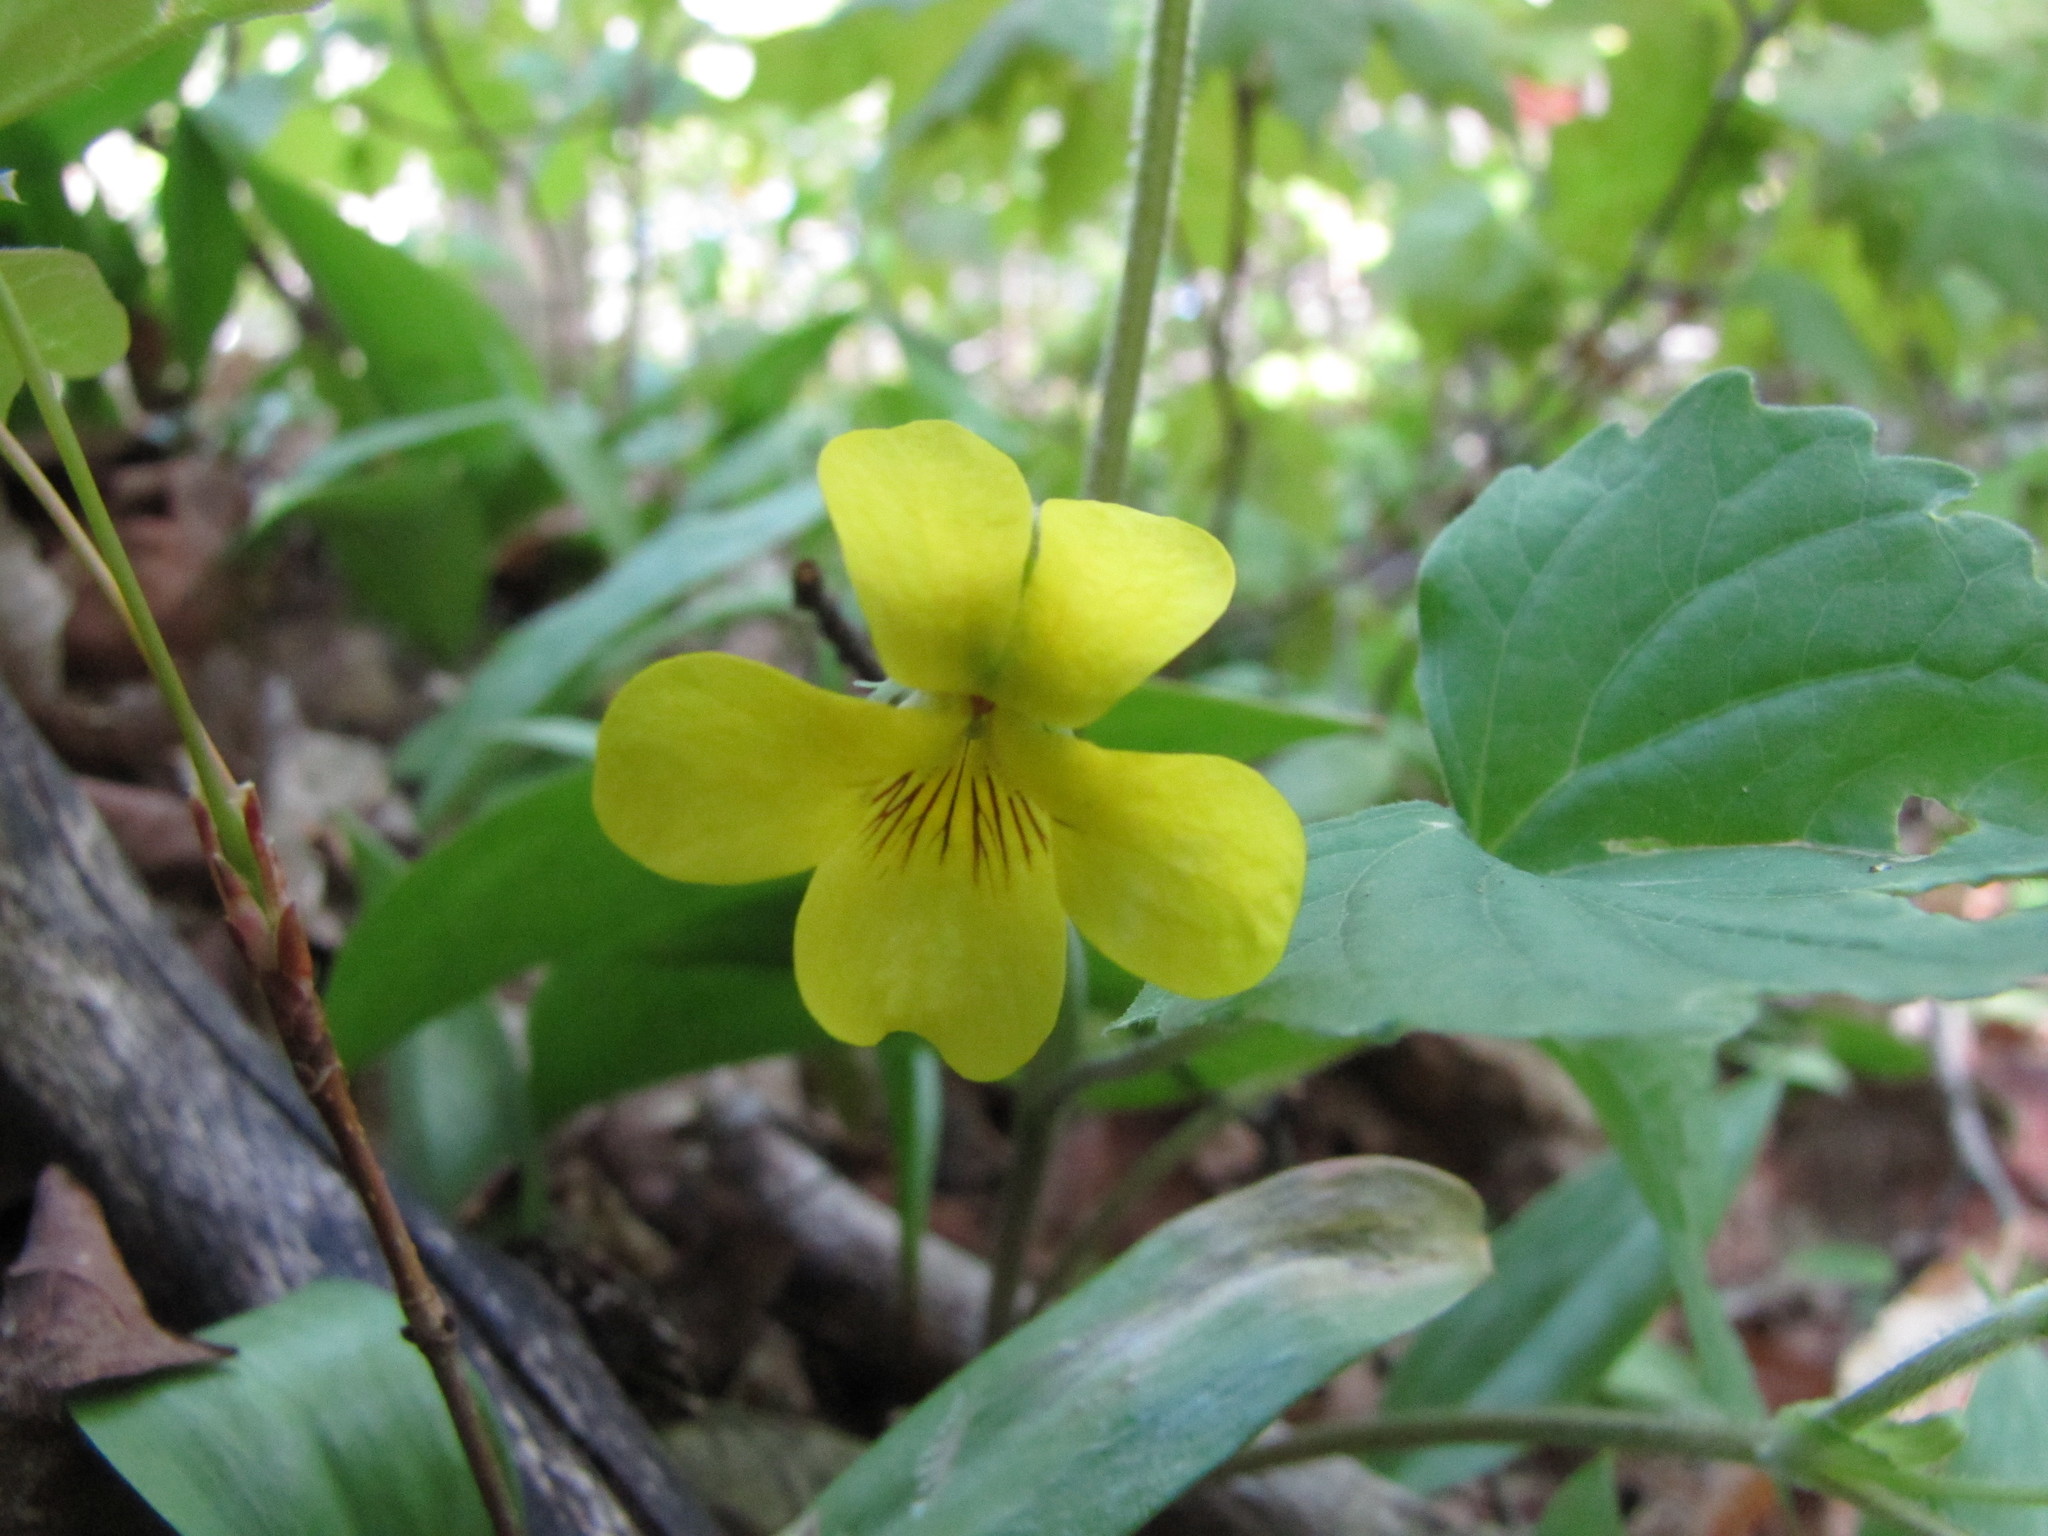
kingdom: Plantae
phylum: Tracheophyta
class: Magnoliopsida
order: Malpighiales
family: Violaceae
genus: Viola
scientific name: Viola eriocarpa
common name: Smooth yellow violet
